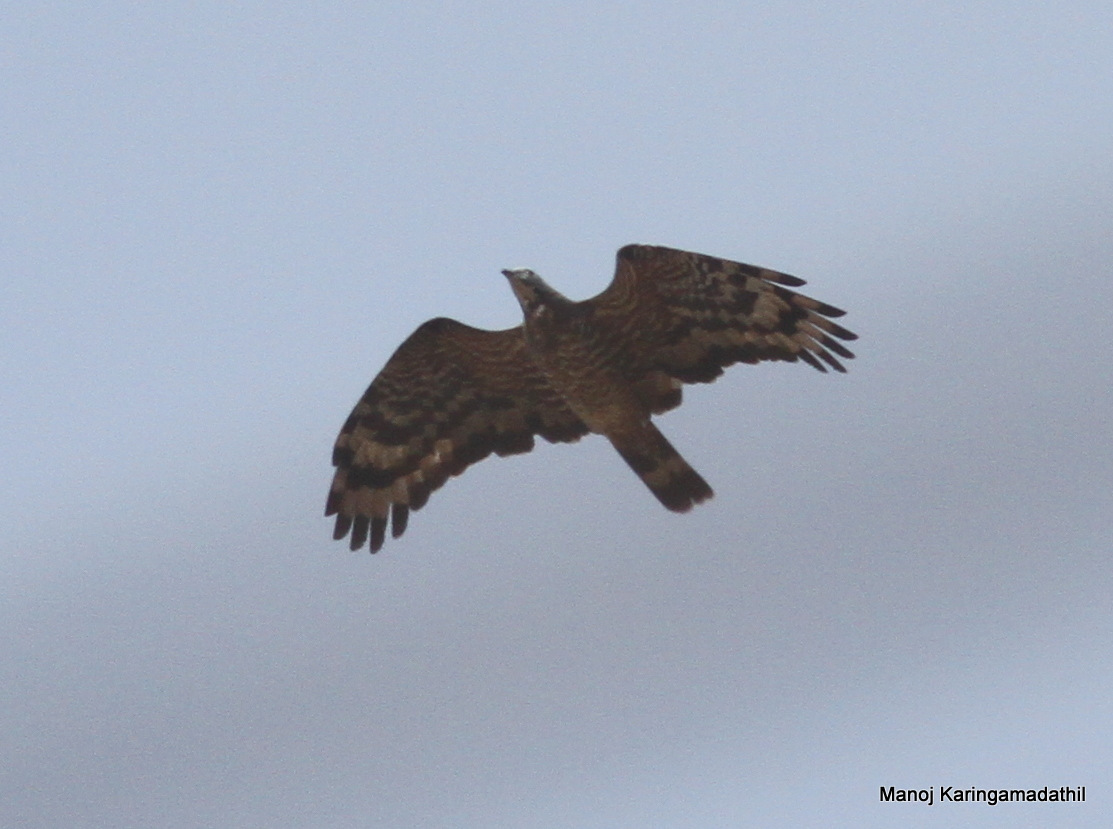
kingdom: Animalia
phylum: Chordata
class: Aves
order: Accipitriformes
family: Accipitridae
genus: Pernis
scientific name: Pernis ptilorhynchus
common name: Crested honey buzzard
